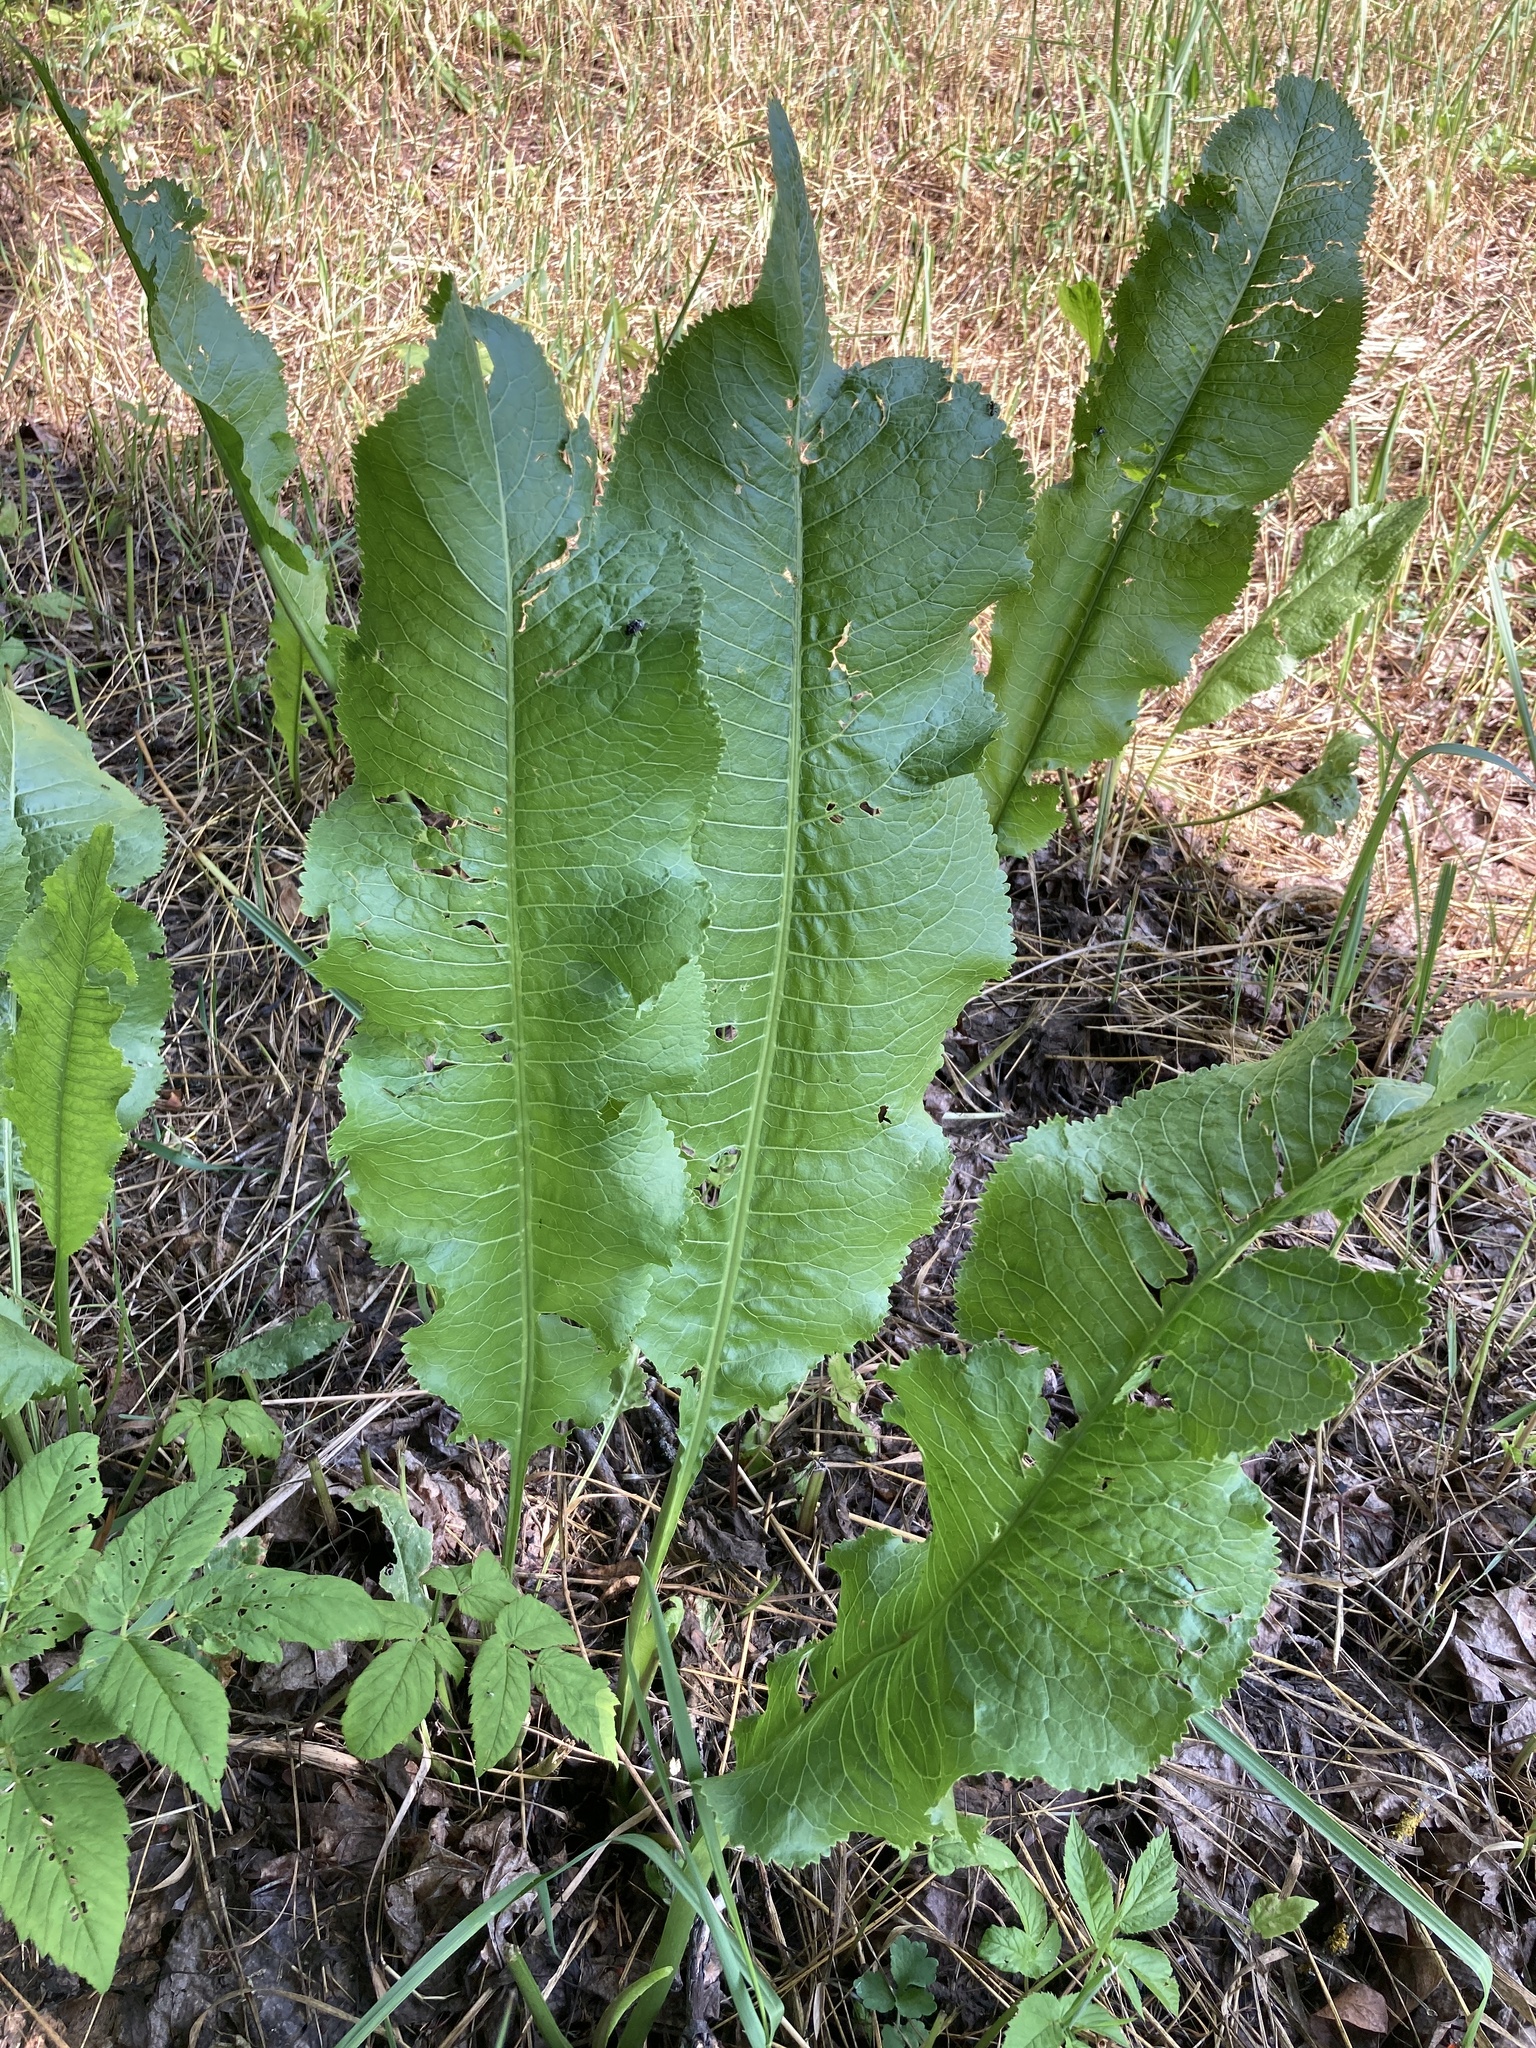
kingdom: Plantae
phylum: Tracheophyta
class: Magnoliopsida
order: Brassicales
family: Brassicaceae
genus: Armoracia
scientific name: Armoracia rusticana
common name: Horseradish
